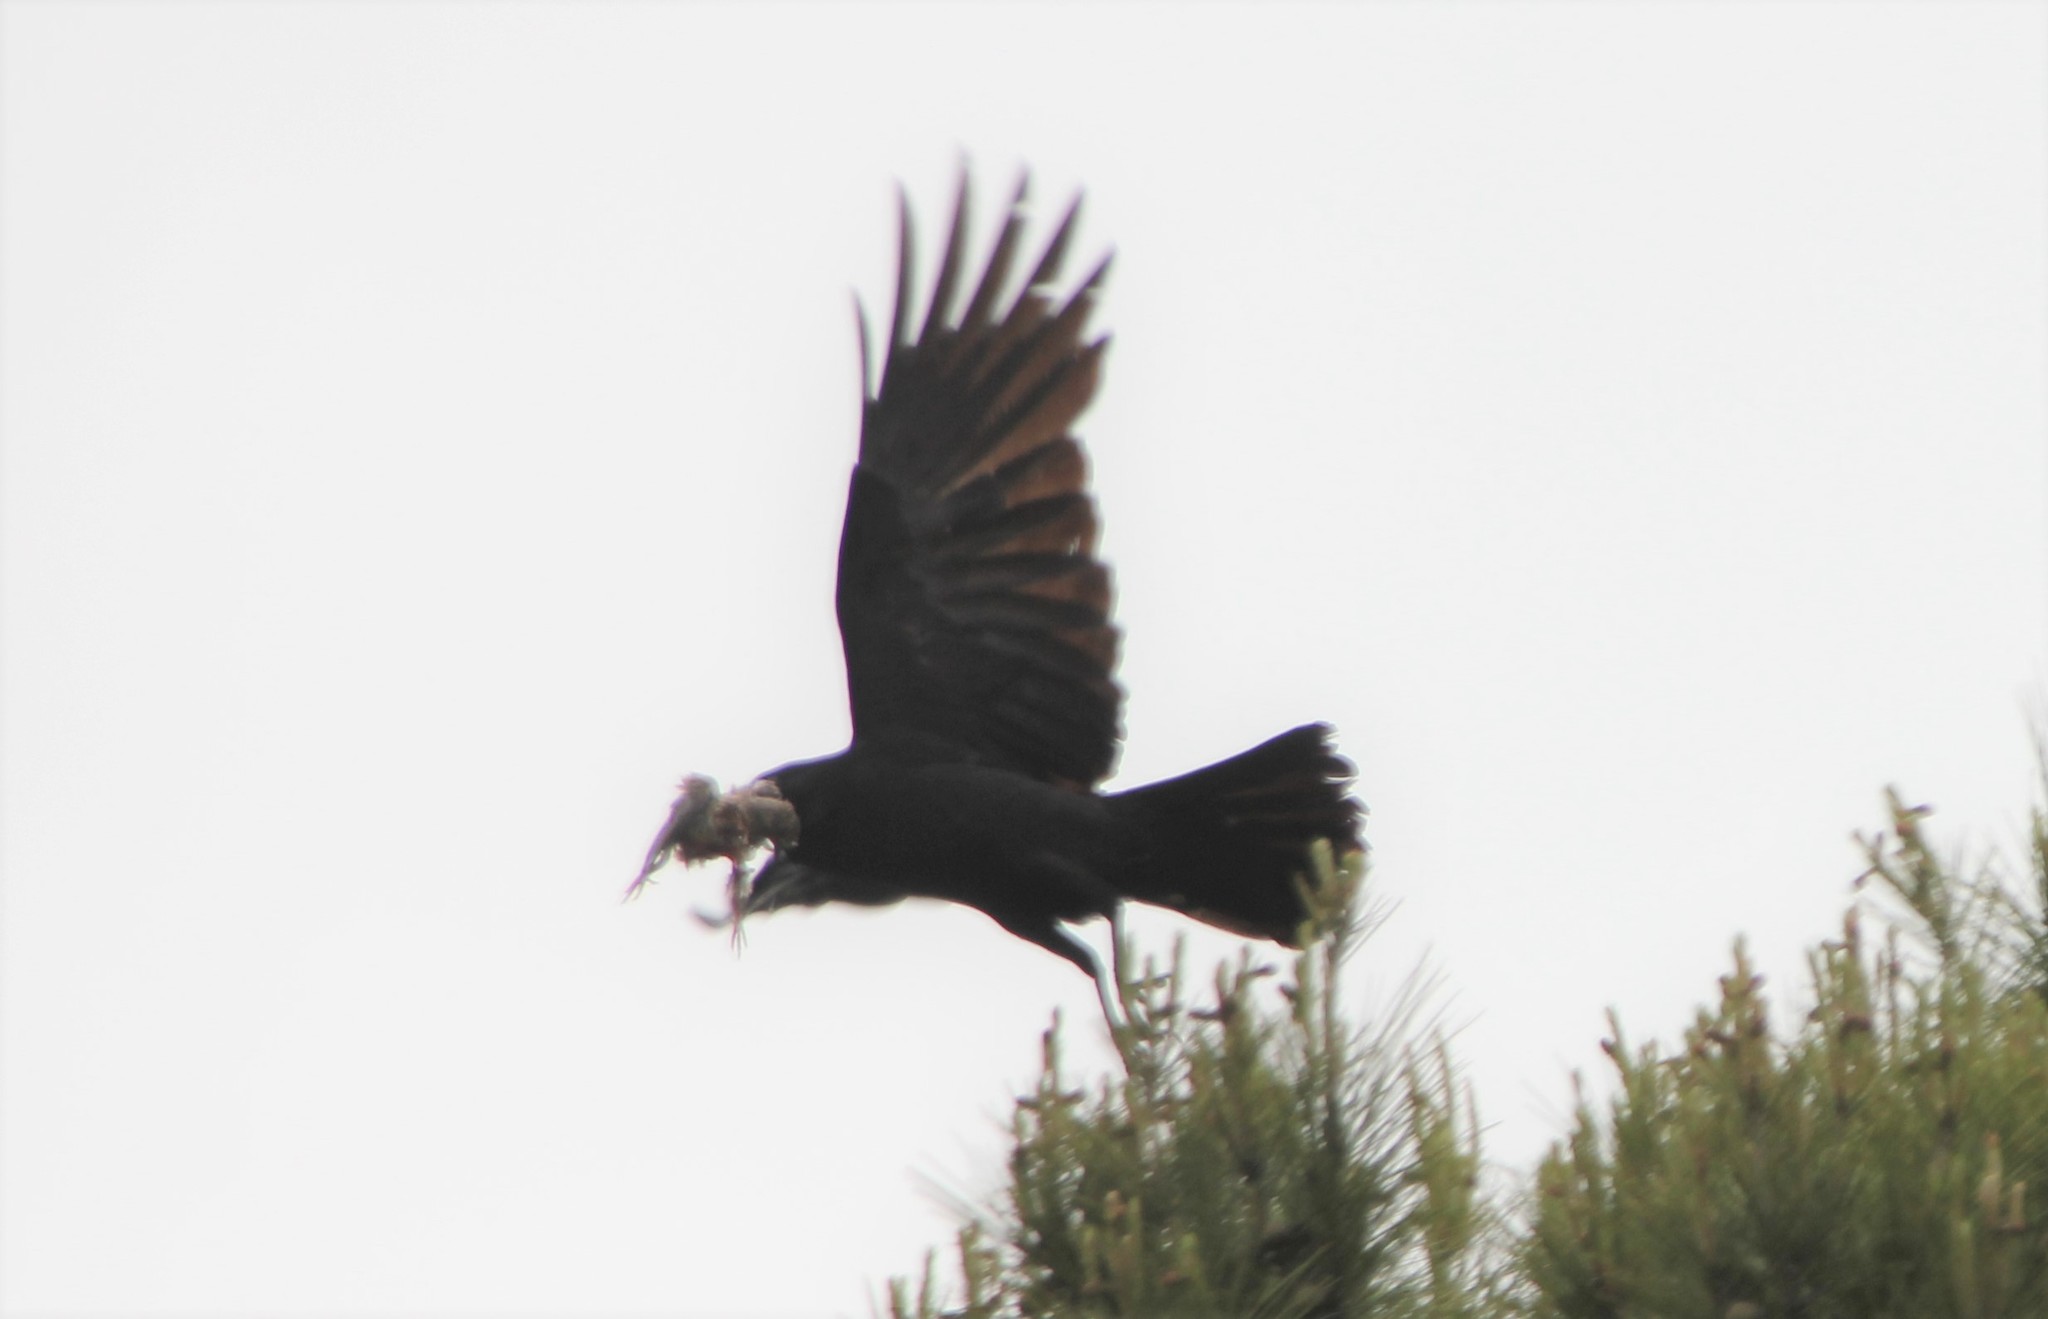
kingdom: Animalia
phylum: Chordata
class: Aves
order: Passeriformes
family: Corvidae
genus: Corvus
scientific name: Corvus brachyrhynchos
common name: American crow
